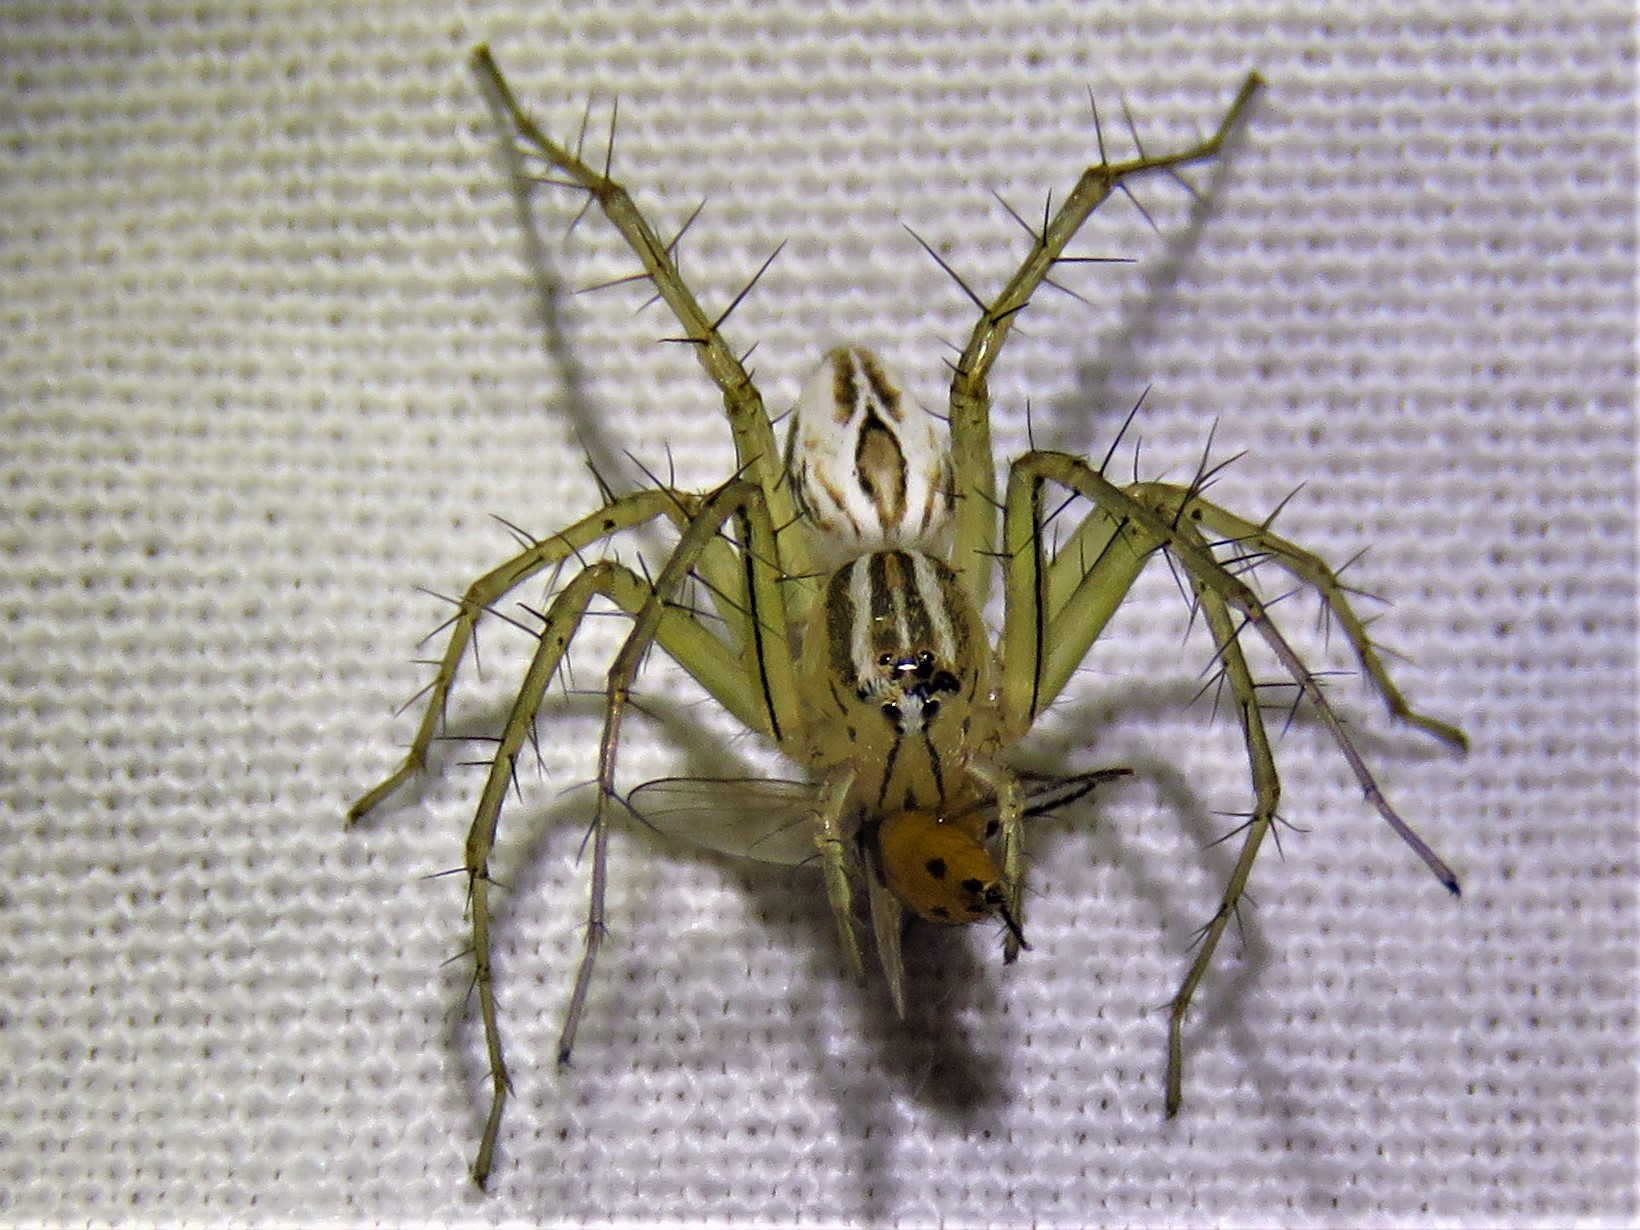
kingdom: Animalia
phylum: Arthropoda
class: Arachnida
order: Araneae
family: Oxyopidae
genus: Oxyopes
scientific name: Oxyopes salticus
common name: Lynx spiders
